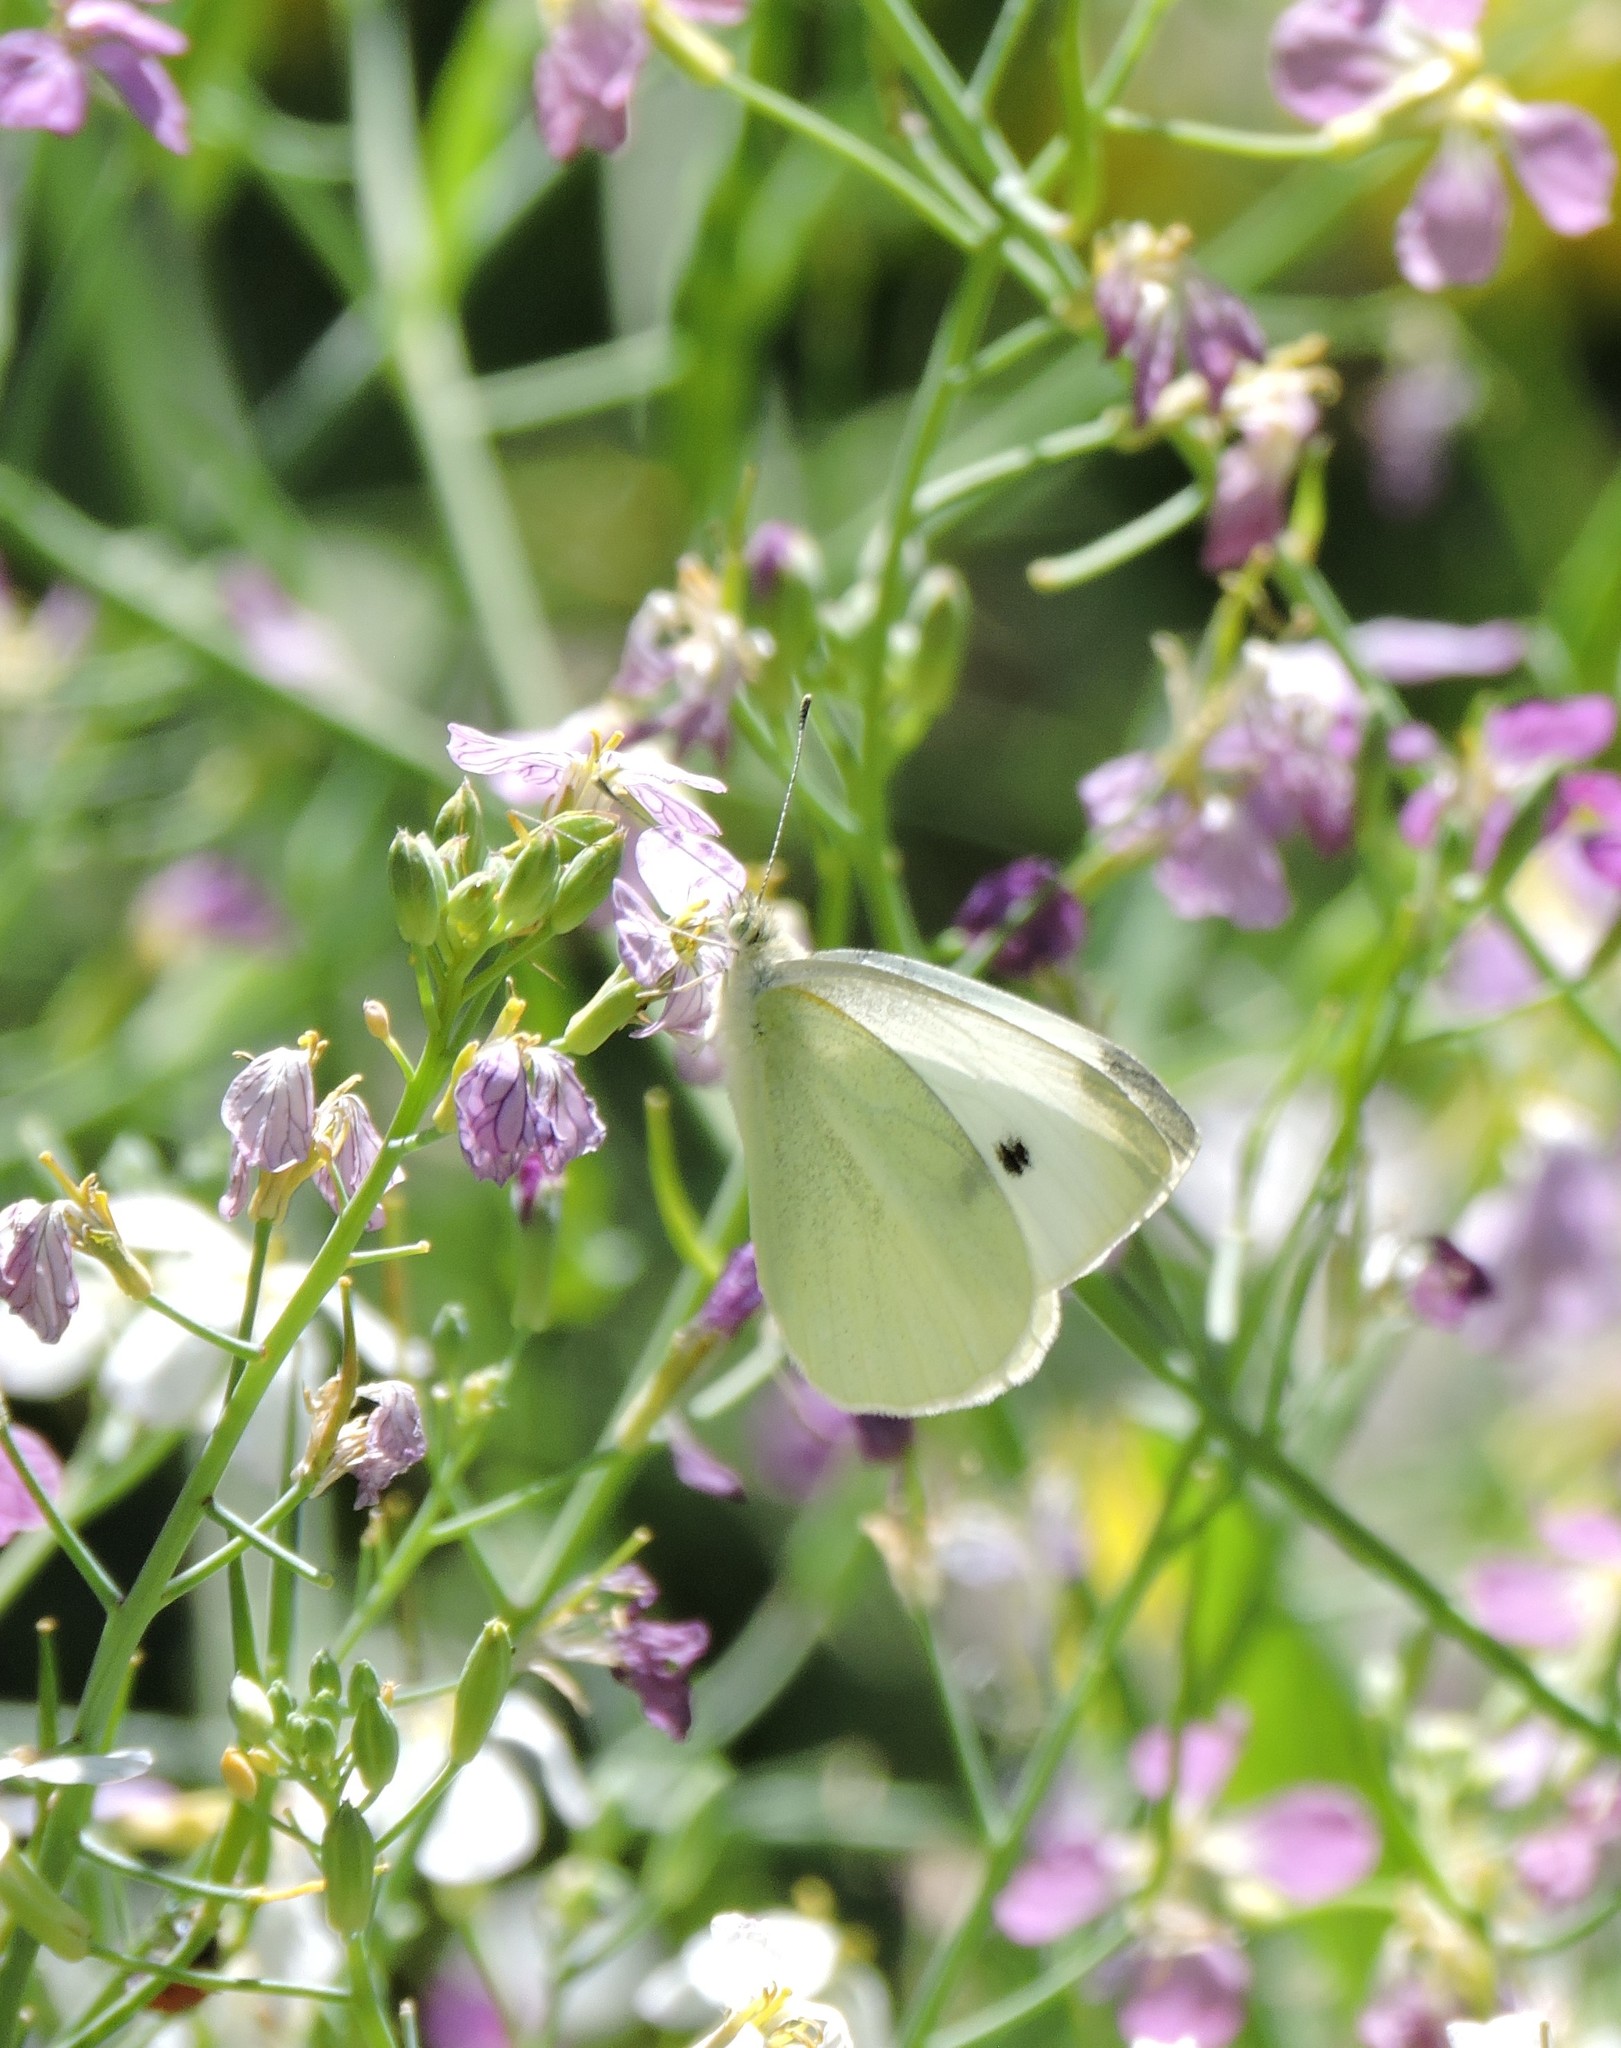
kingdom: Animalia
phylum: Arthropoda
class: Insecta
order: Lepidoptera
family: Pieridae
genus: Pieris
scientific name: Pieris rapae
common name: Small white
